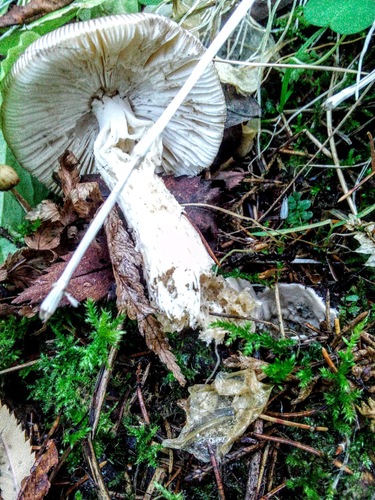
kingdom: Fungi
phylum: Basidiomycota
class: Agaricomycetes
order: Agaricales
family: Amanitaceae
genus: Amanita
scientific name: Amanita battarrae
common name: Banded amanita
